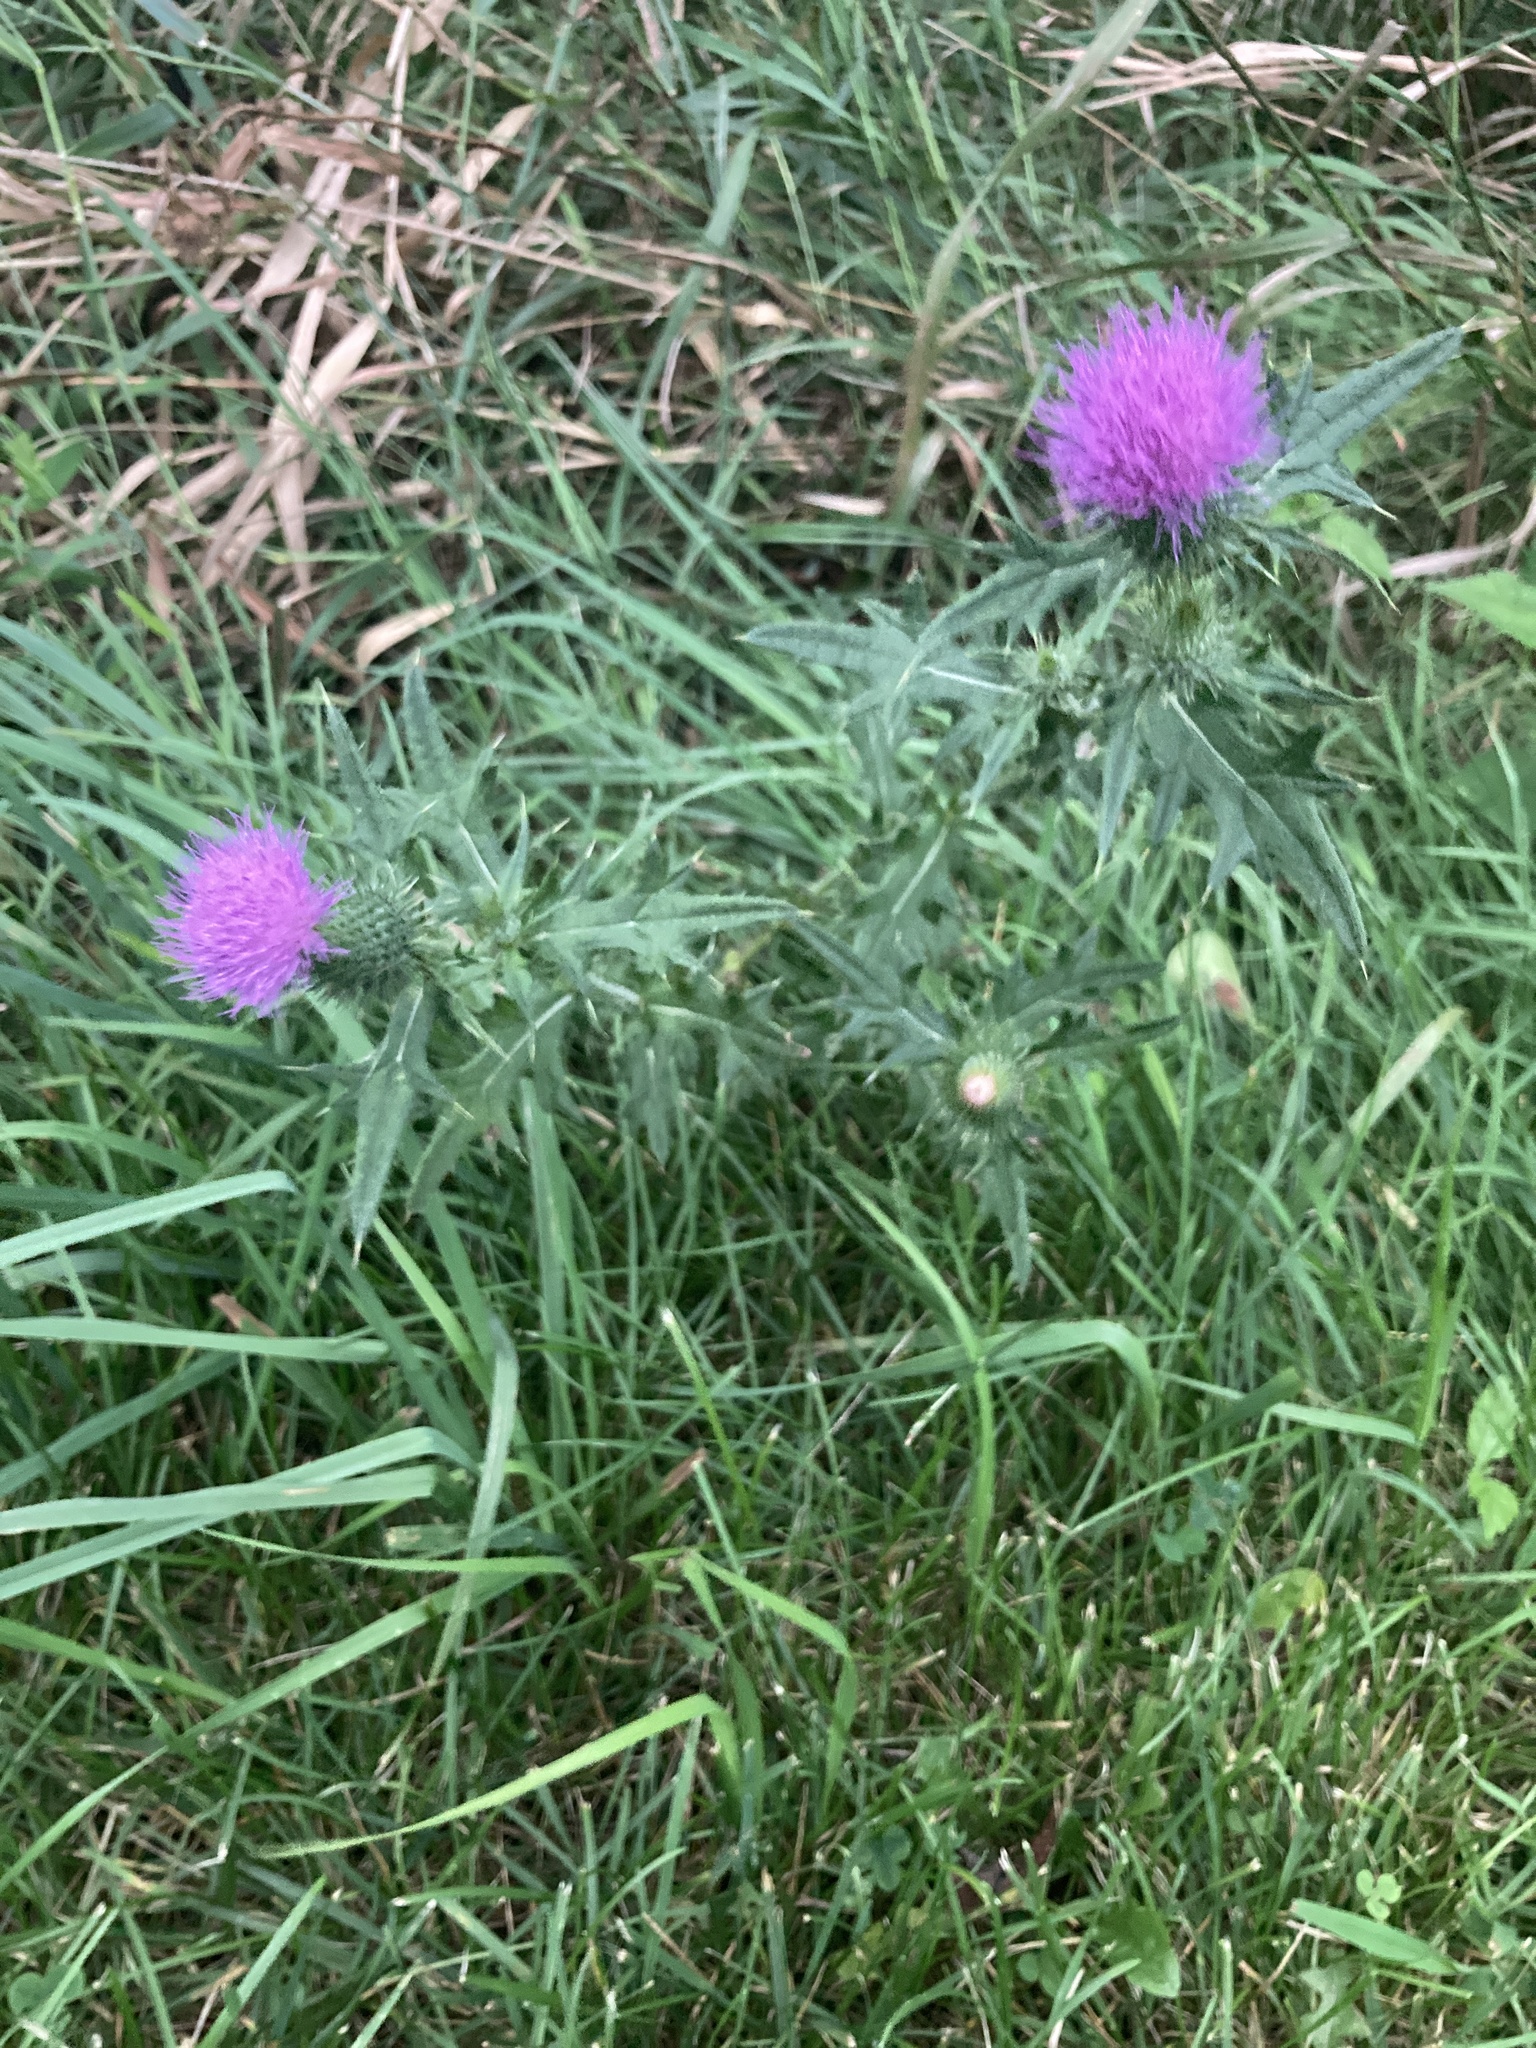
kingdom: Plantae
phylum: Tracheophyta
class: Magnoliopsida
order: Asterales
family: Asteraceae
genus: Cirsium
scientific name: Cirsium vulgare
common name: Bull thistle
